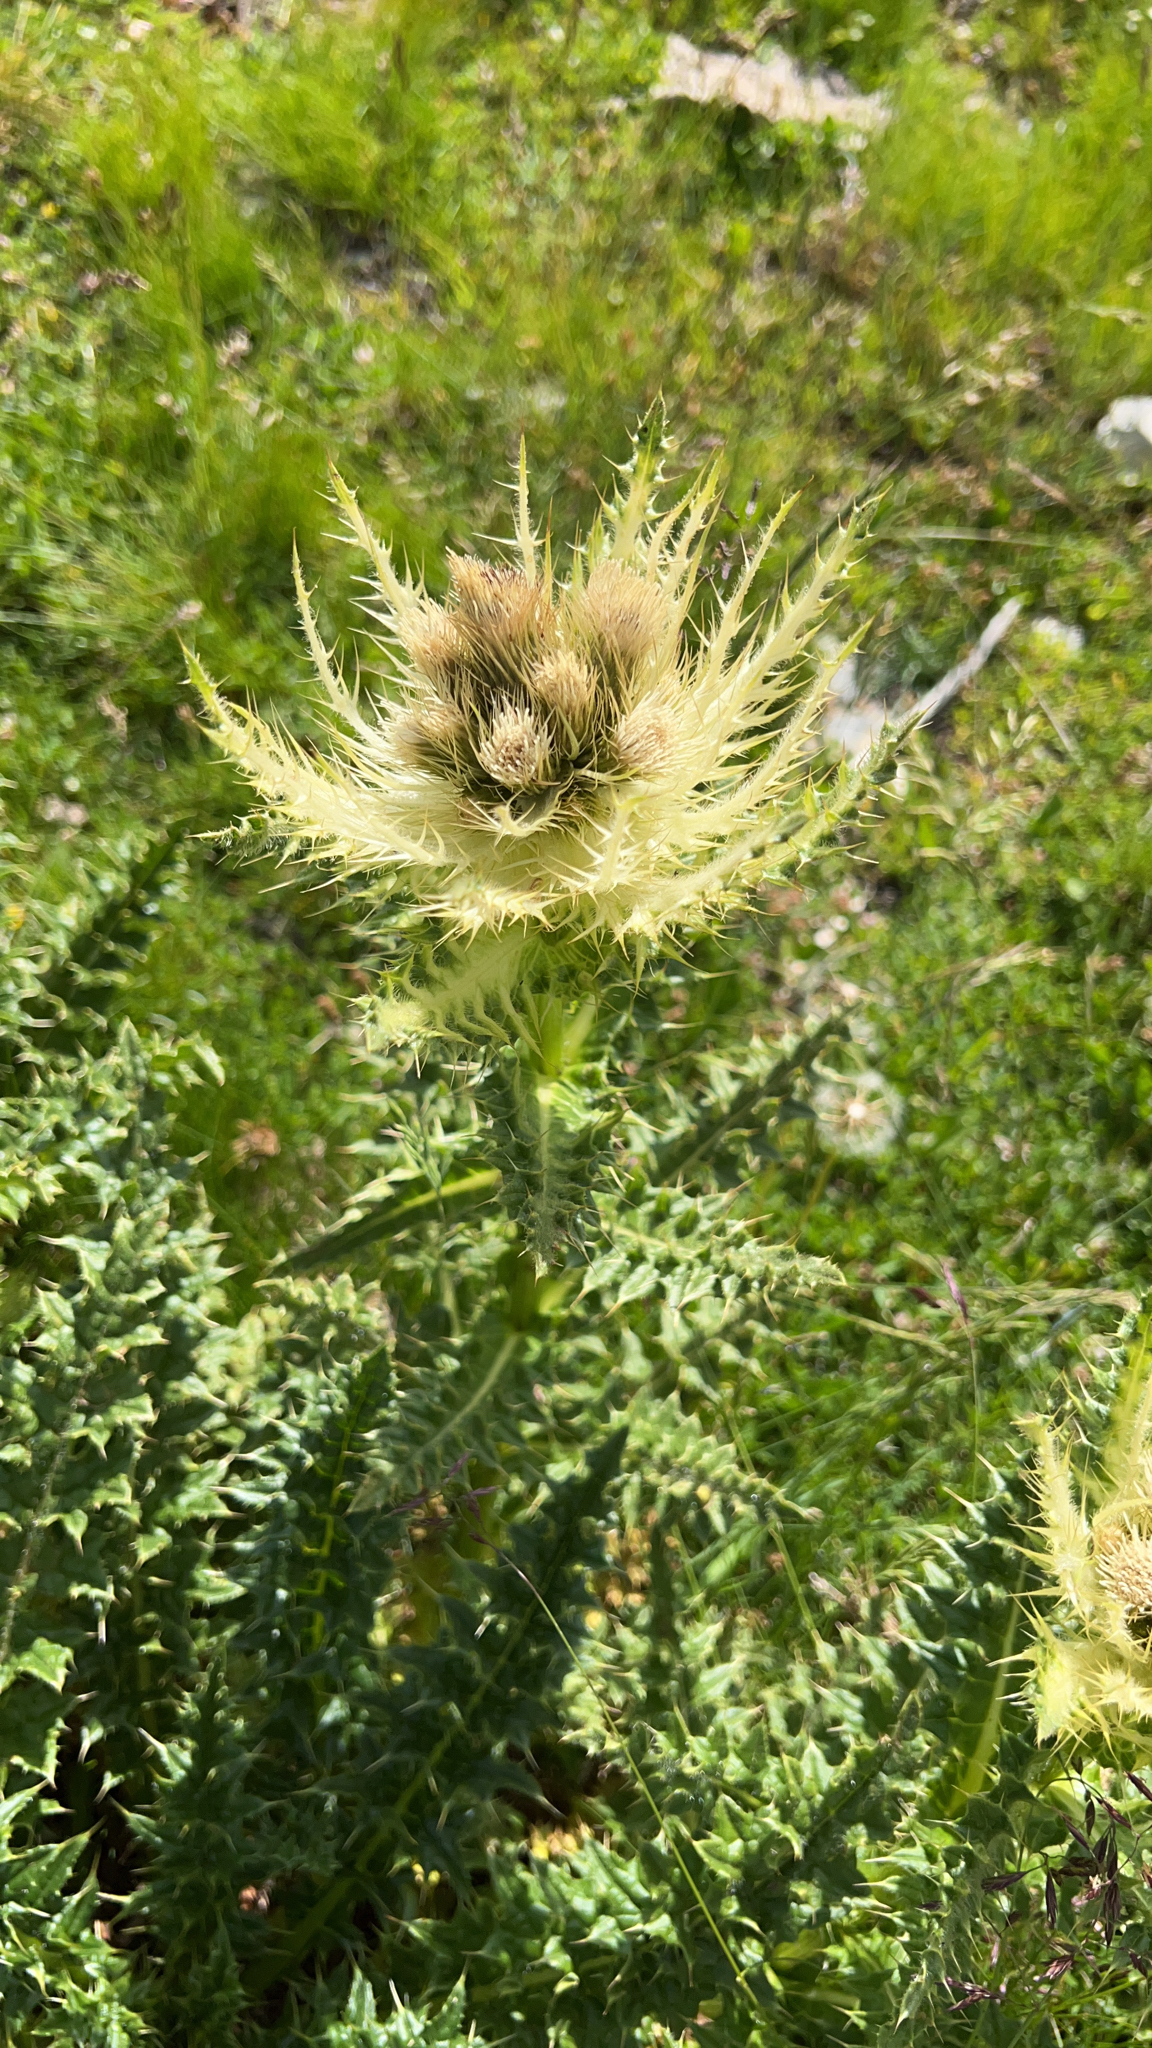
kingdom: Plantae
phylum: Tracheophyta
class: Magnoliopsida
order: Asterales
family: Asteraceae
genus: Cirsium
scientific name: Cirsium spinosissimum
